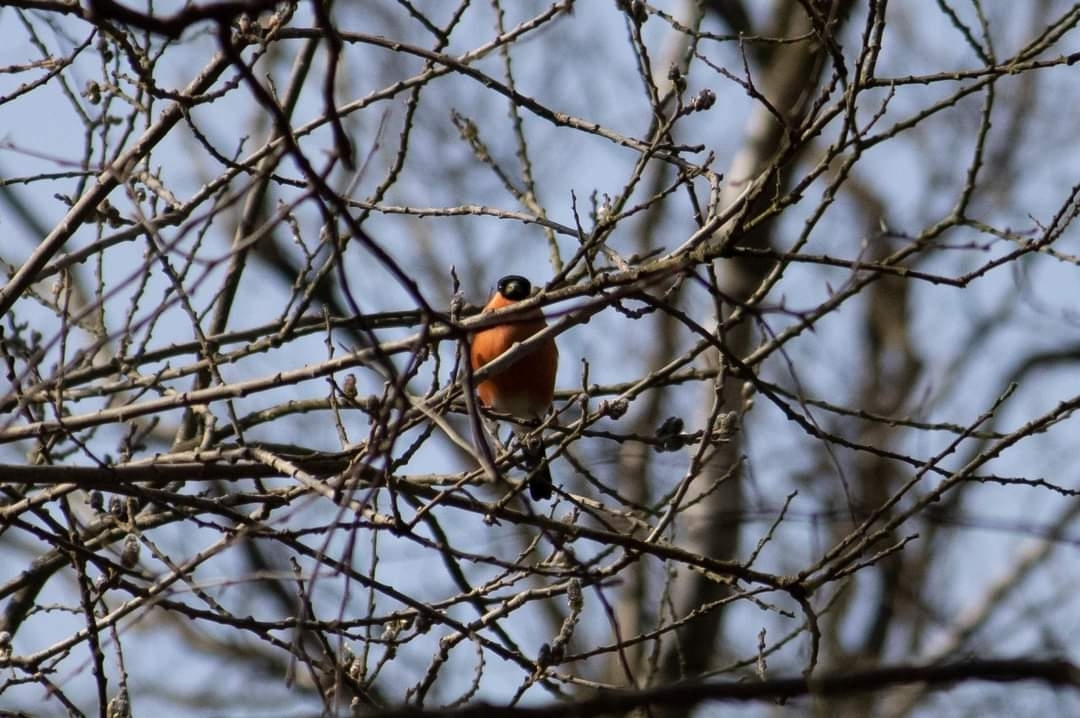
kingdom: Animalia
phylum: Chordata
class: Aves
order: Passeriformes
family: Fringillidae
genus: Pyrrhula
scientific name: Pyrrhula pyrrhula
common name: Eurasian bullfinch
